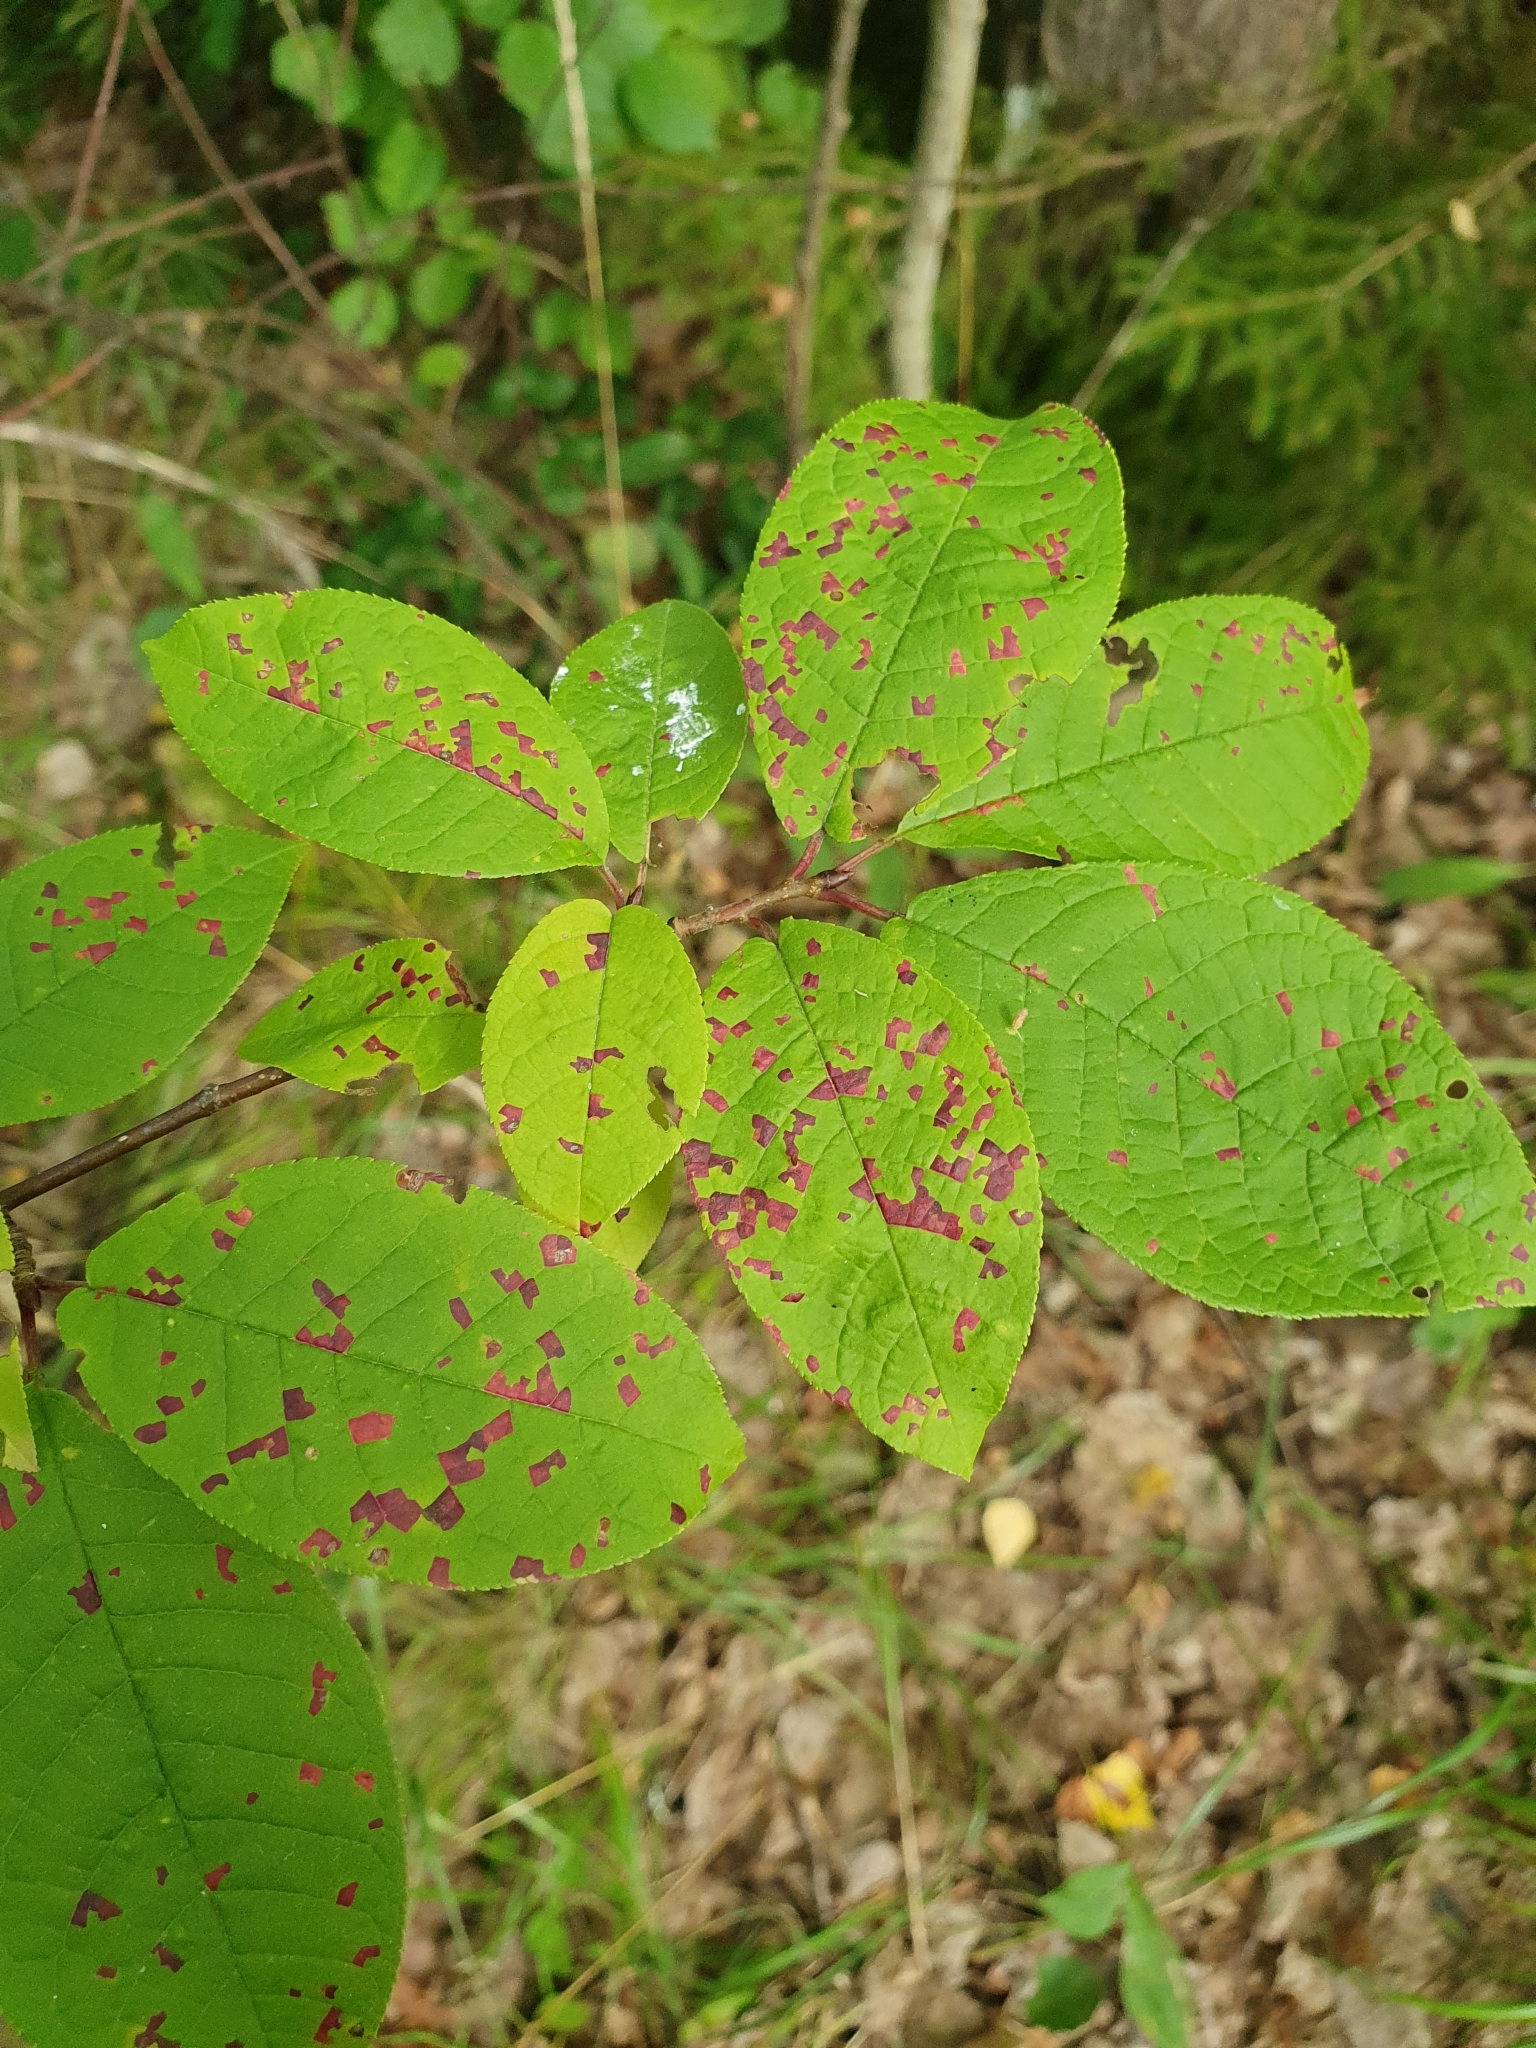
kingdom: Fungi
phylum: Basidiomycota
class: Pucciniomycetes
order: Pucciniales
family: Pucciniastraceae
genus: Thekopsora
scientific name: Thekopsora areolata
